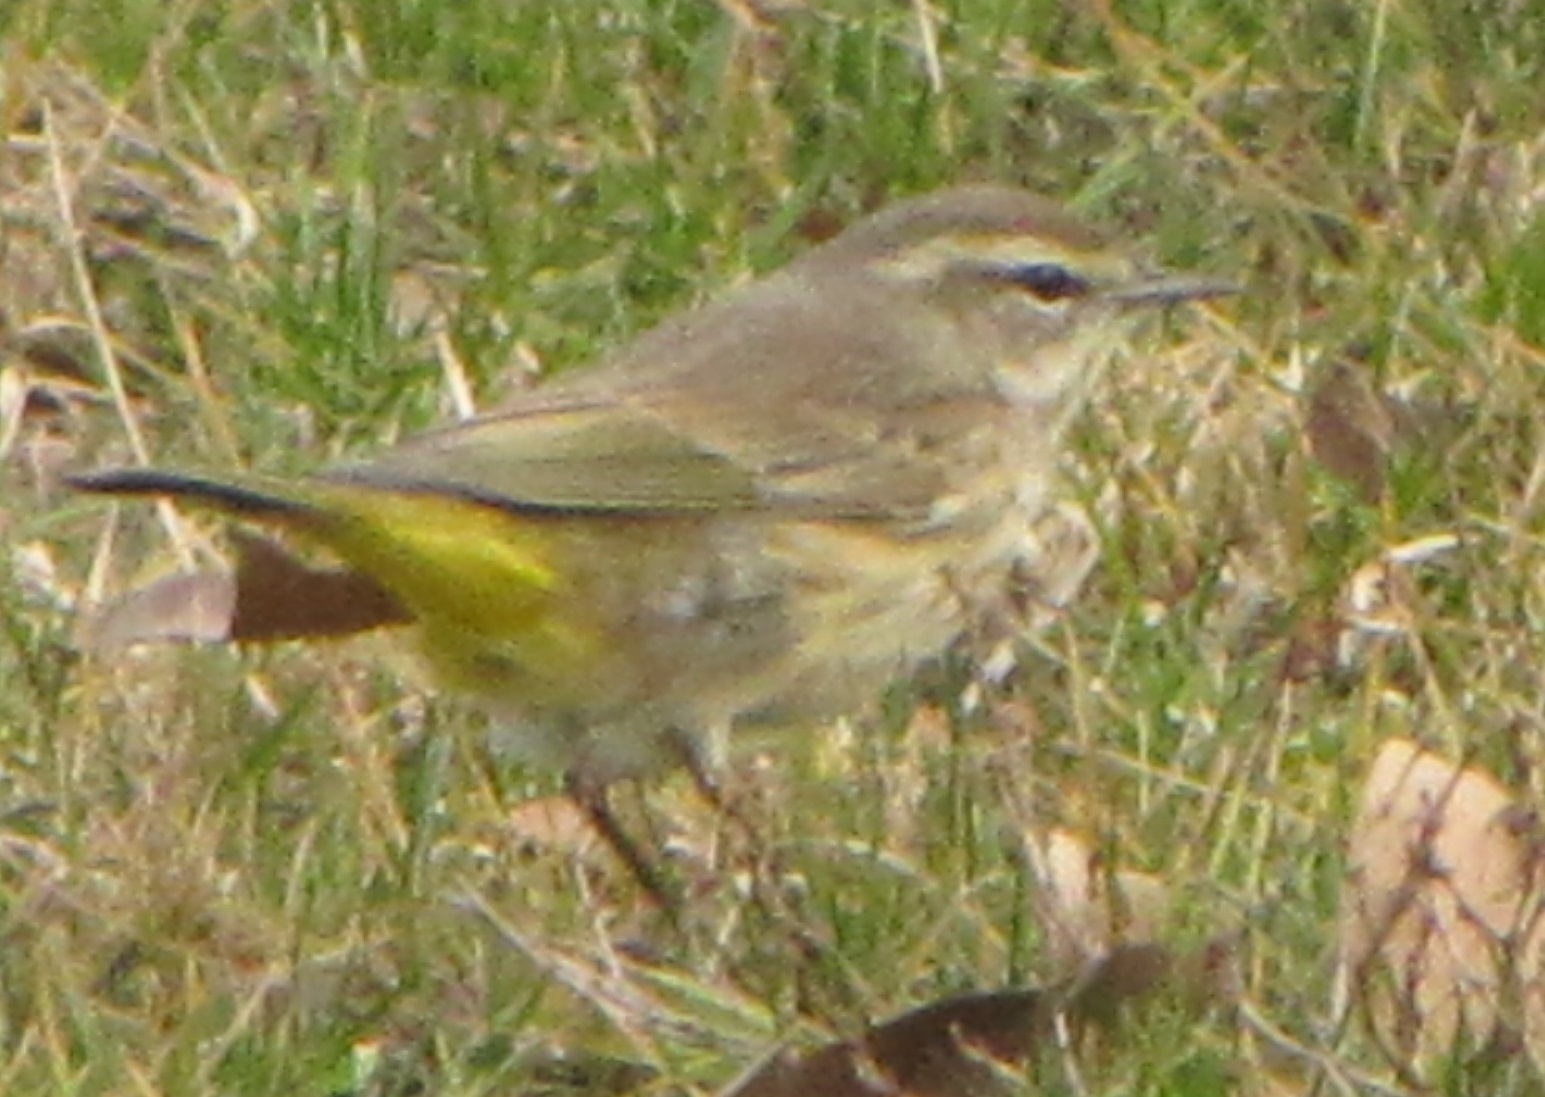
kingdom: Animalia
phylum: Chordata
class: Aves
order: Passeriformes
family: Parulidae
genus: Setophaga
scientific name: Setophaga palmarum
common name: Palm warbler
